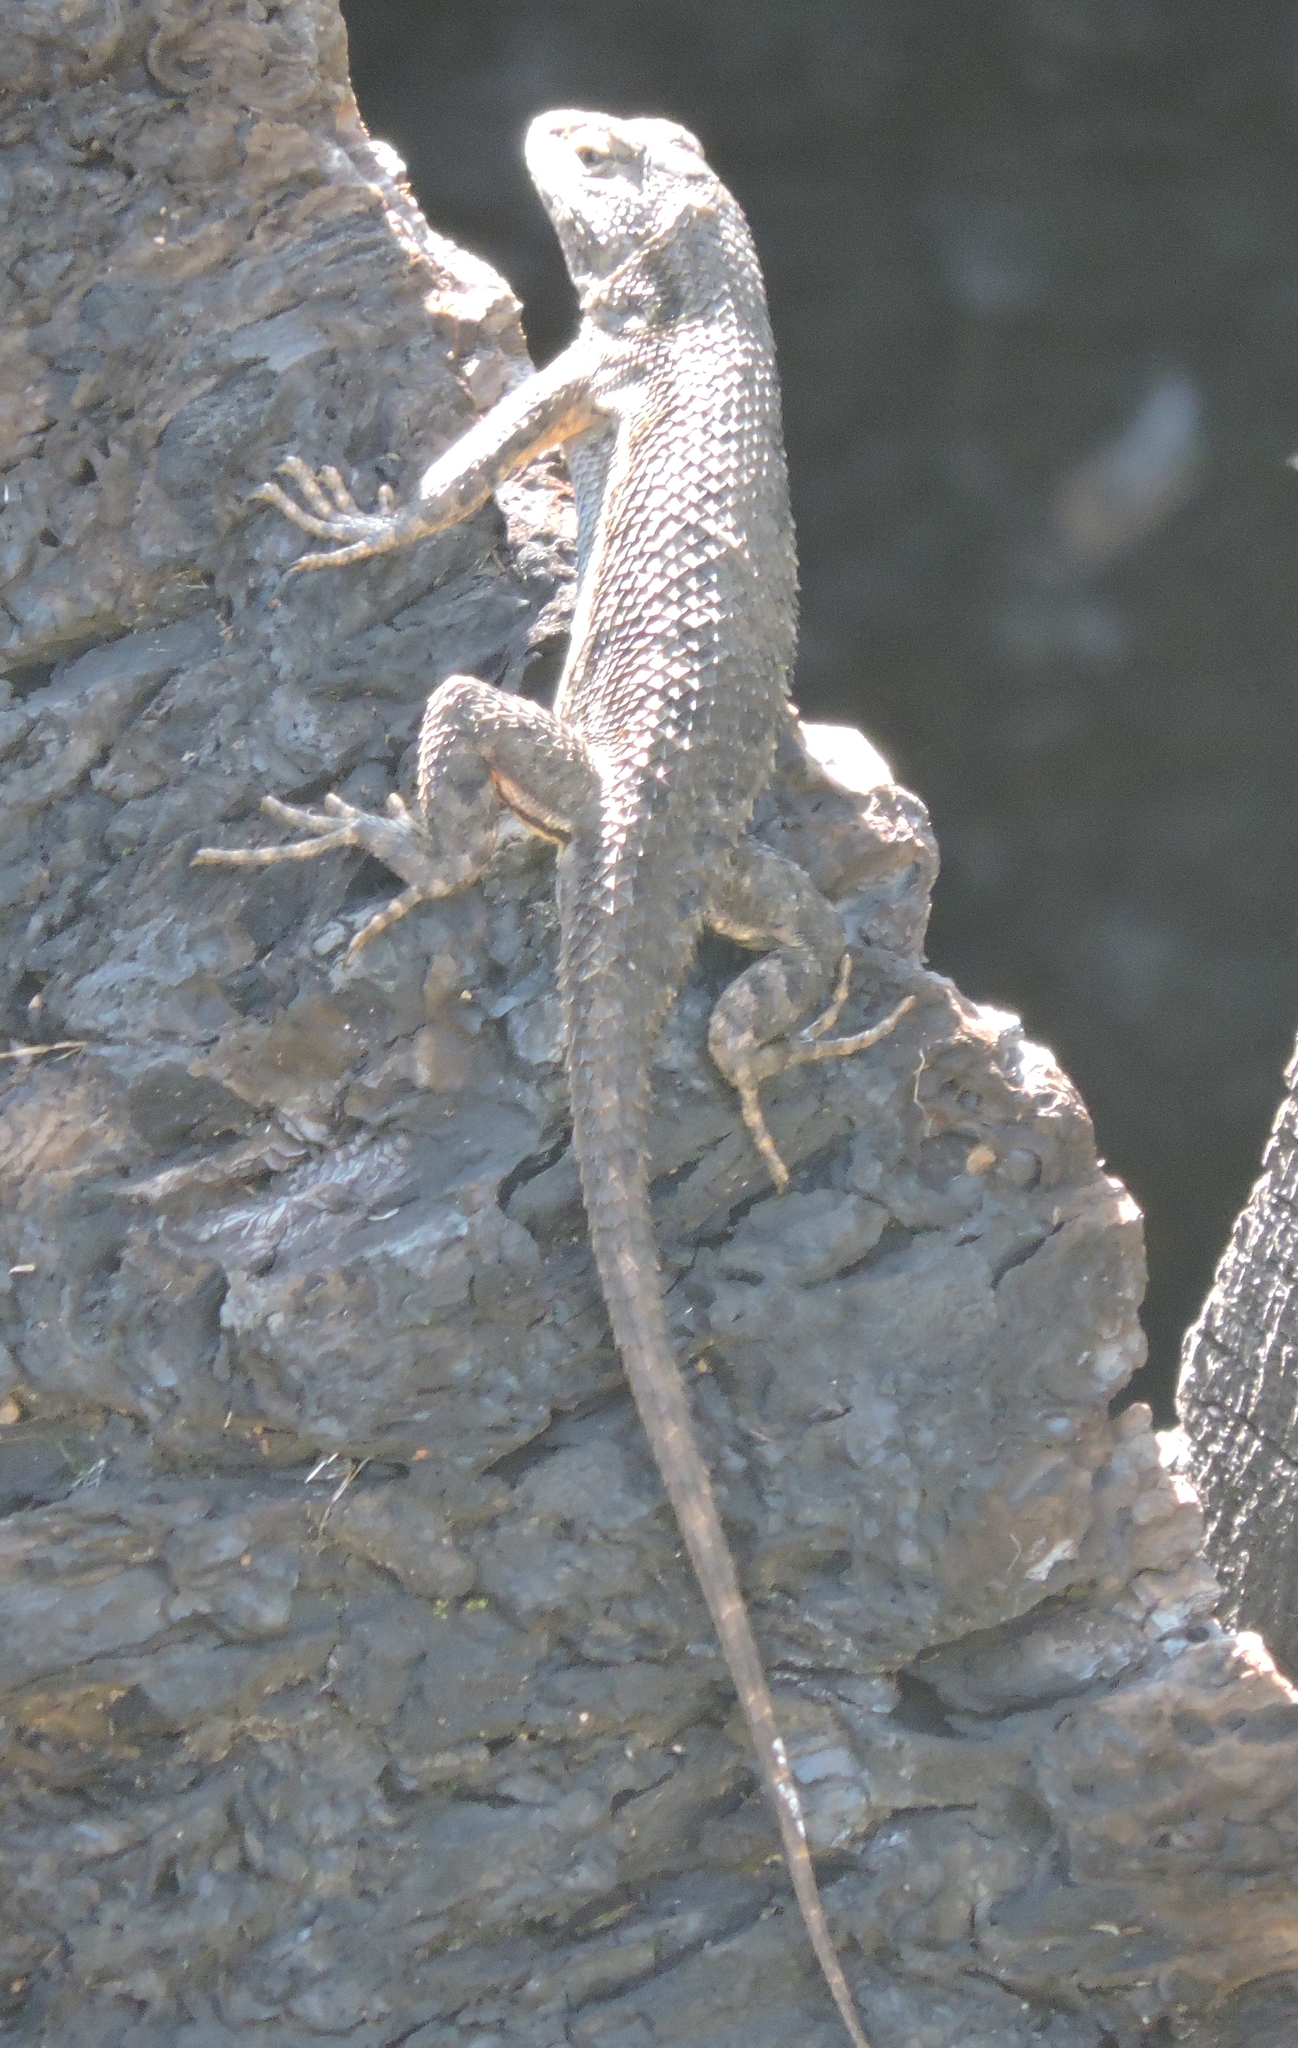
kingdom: Animalia
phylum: Chordata
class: Squamata
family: Phrynosomatidae
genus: Sceloporus
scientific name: Sceloporus occidentalis
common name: Western fence lizard
